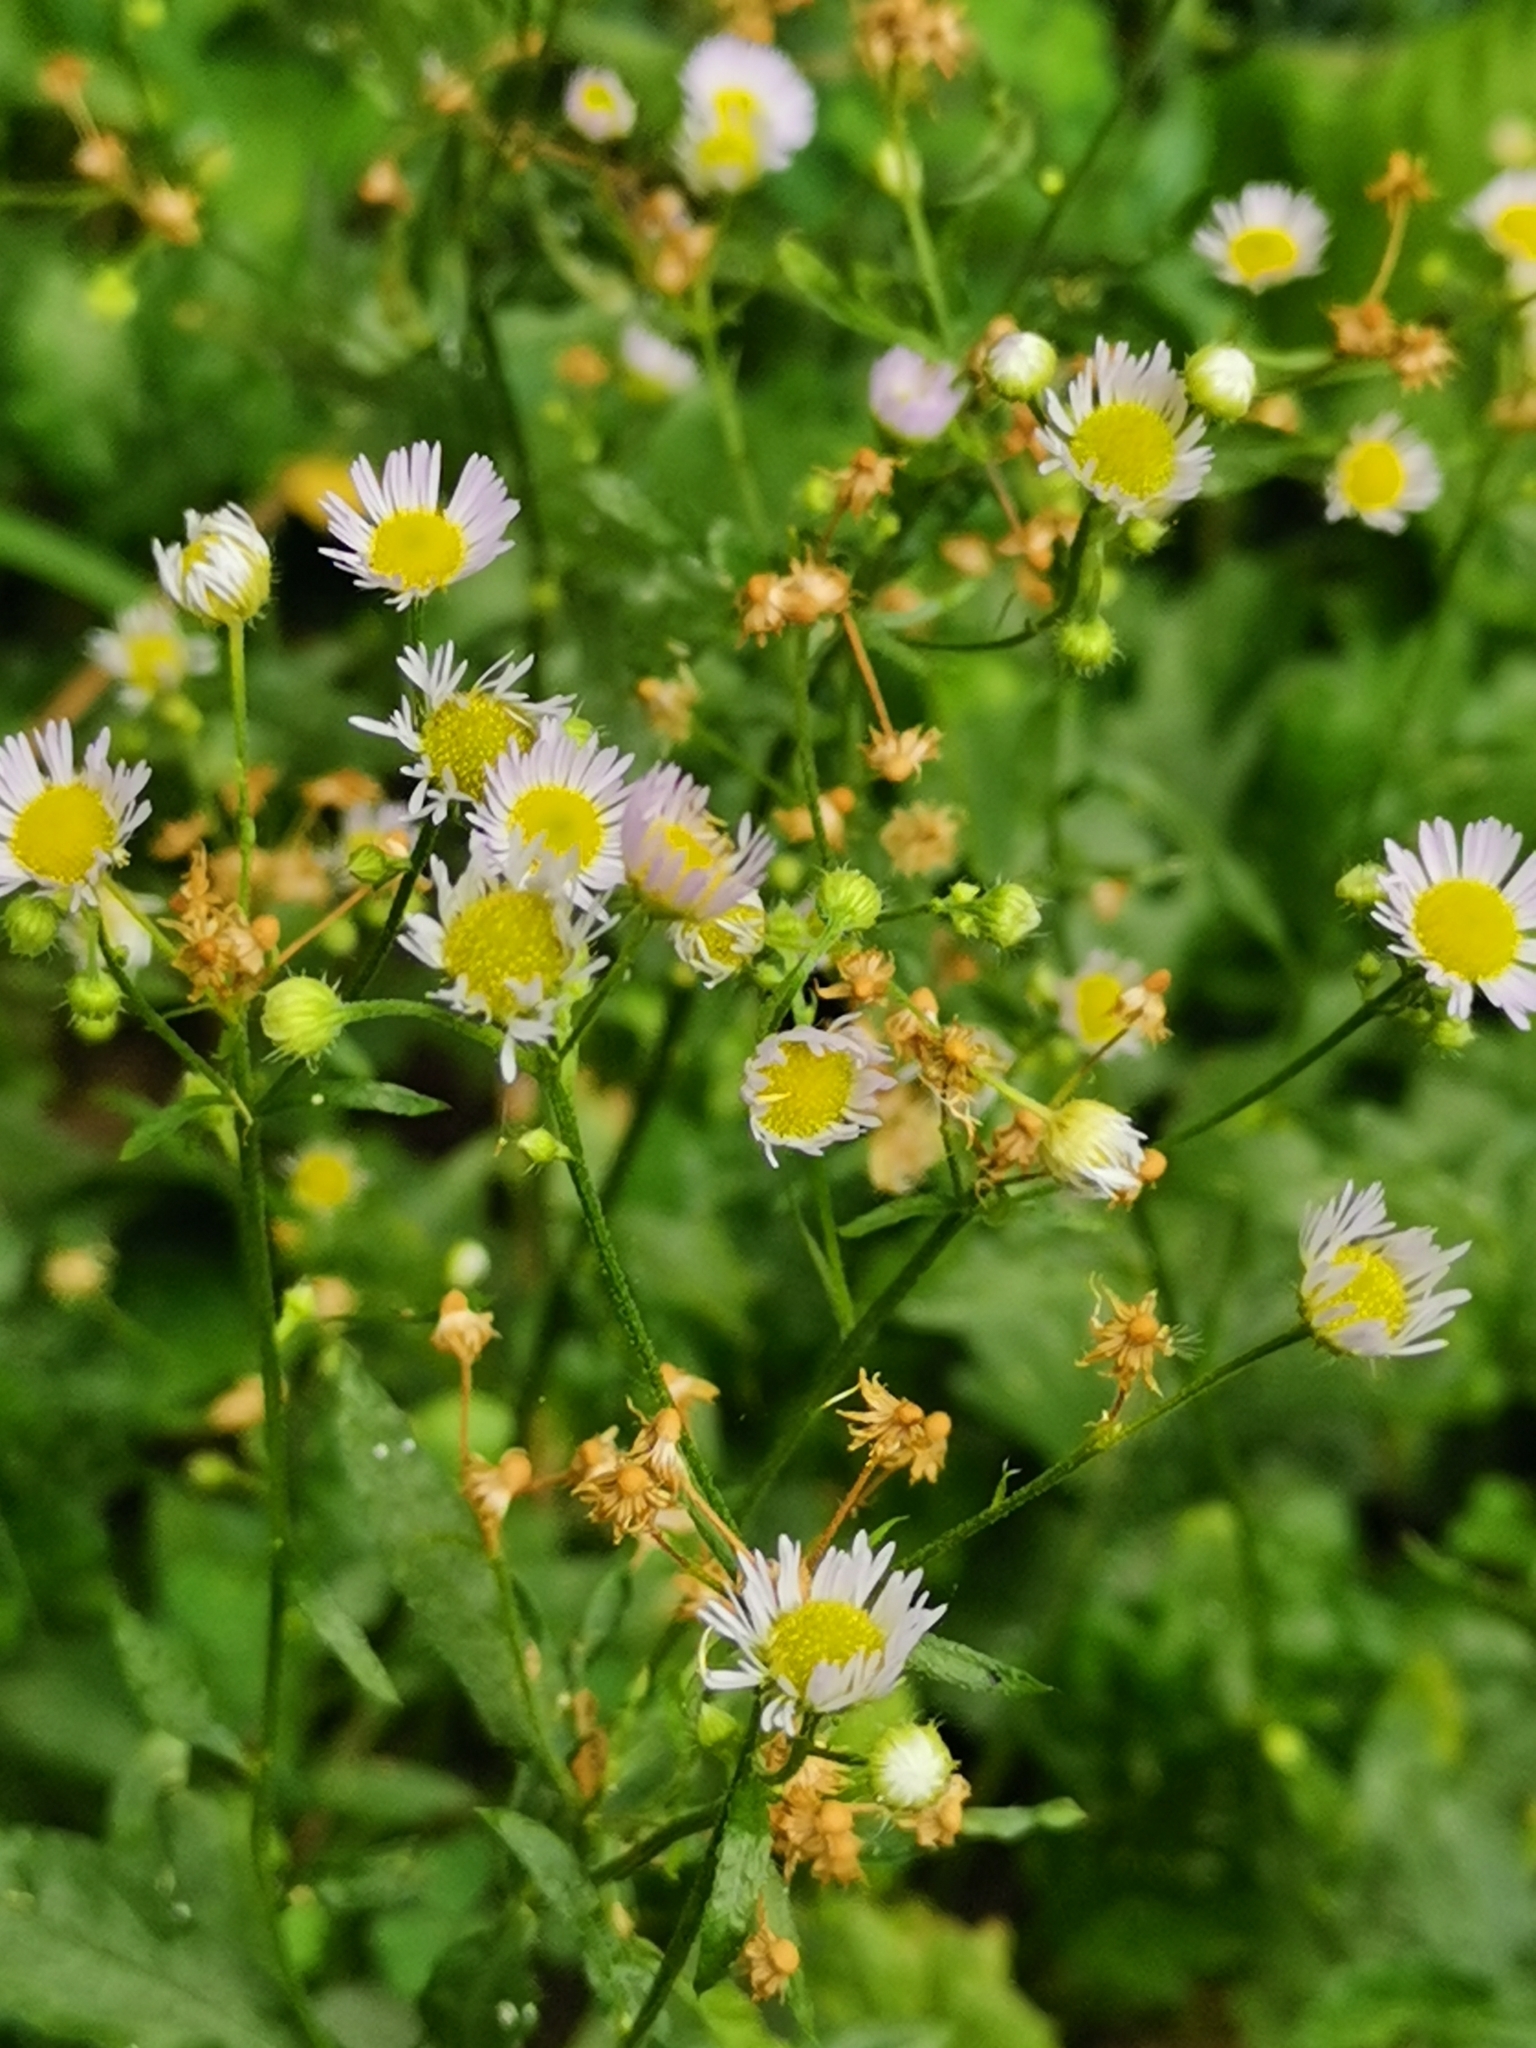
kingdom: Plantae
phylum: Tracheophyta
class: Magnoliopsida
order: Asterales
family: Asteraceae
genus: Erigeron
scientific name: Erigeron annuus
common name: Tall fleabane
